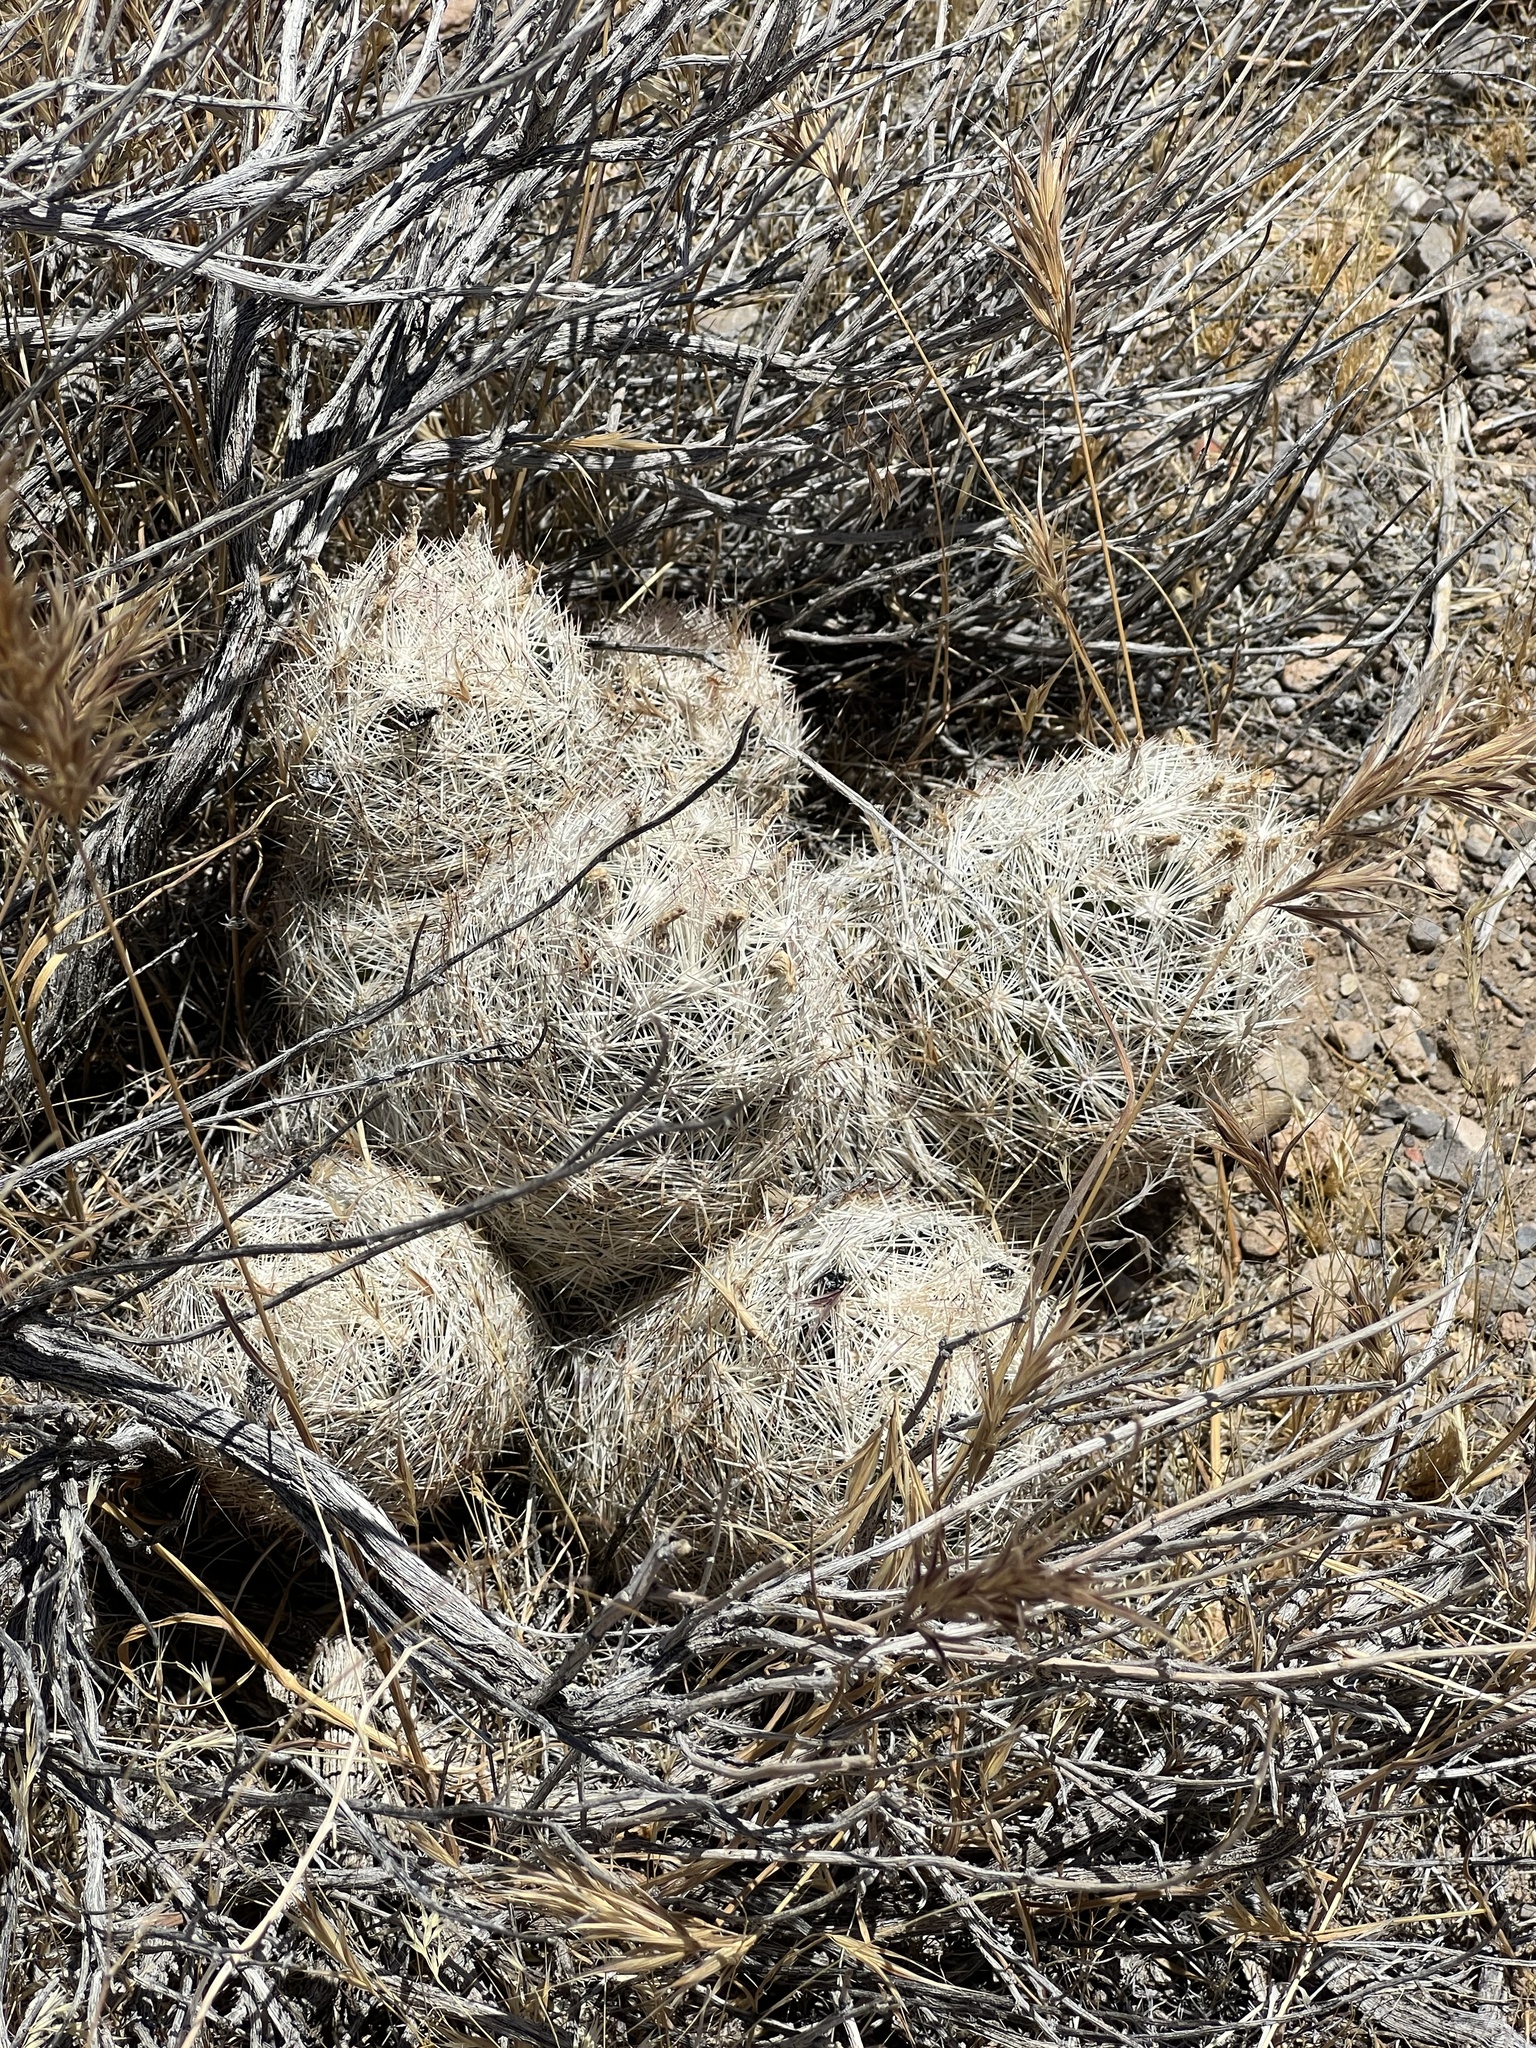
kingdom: Plantae
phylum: Tracheophyta
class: Magnoliopsida
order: Caryophyllales
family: Cactaceae
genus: Pelecyphora
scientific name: Pelecyphora dasyacantha
